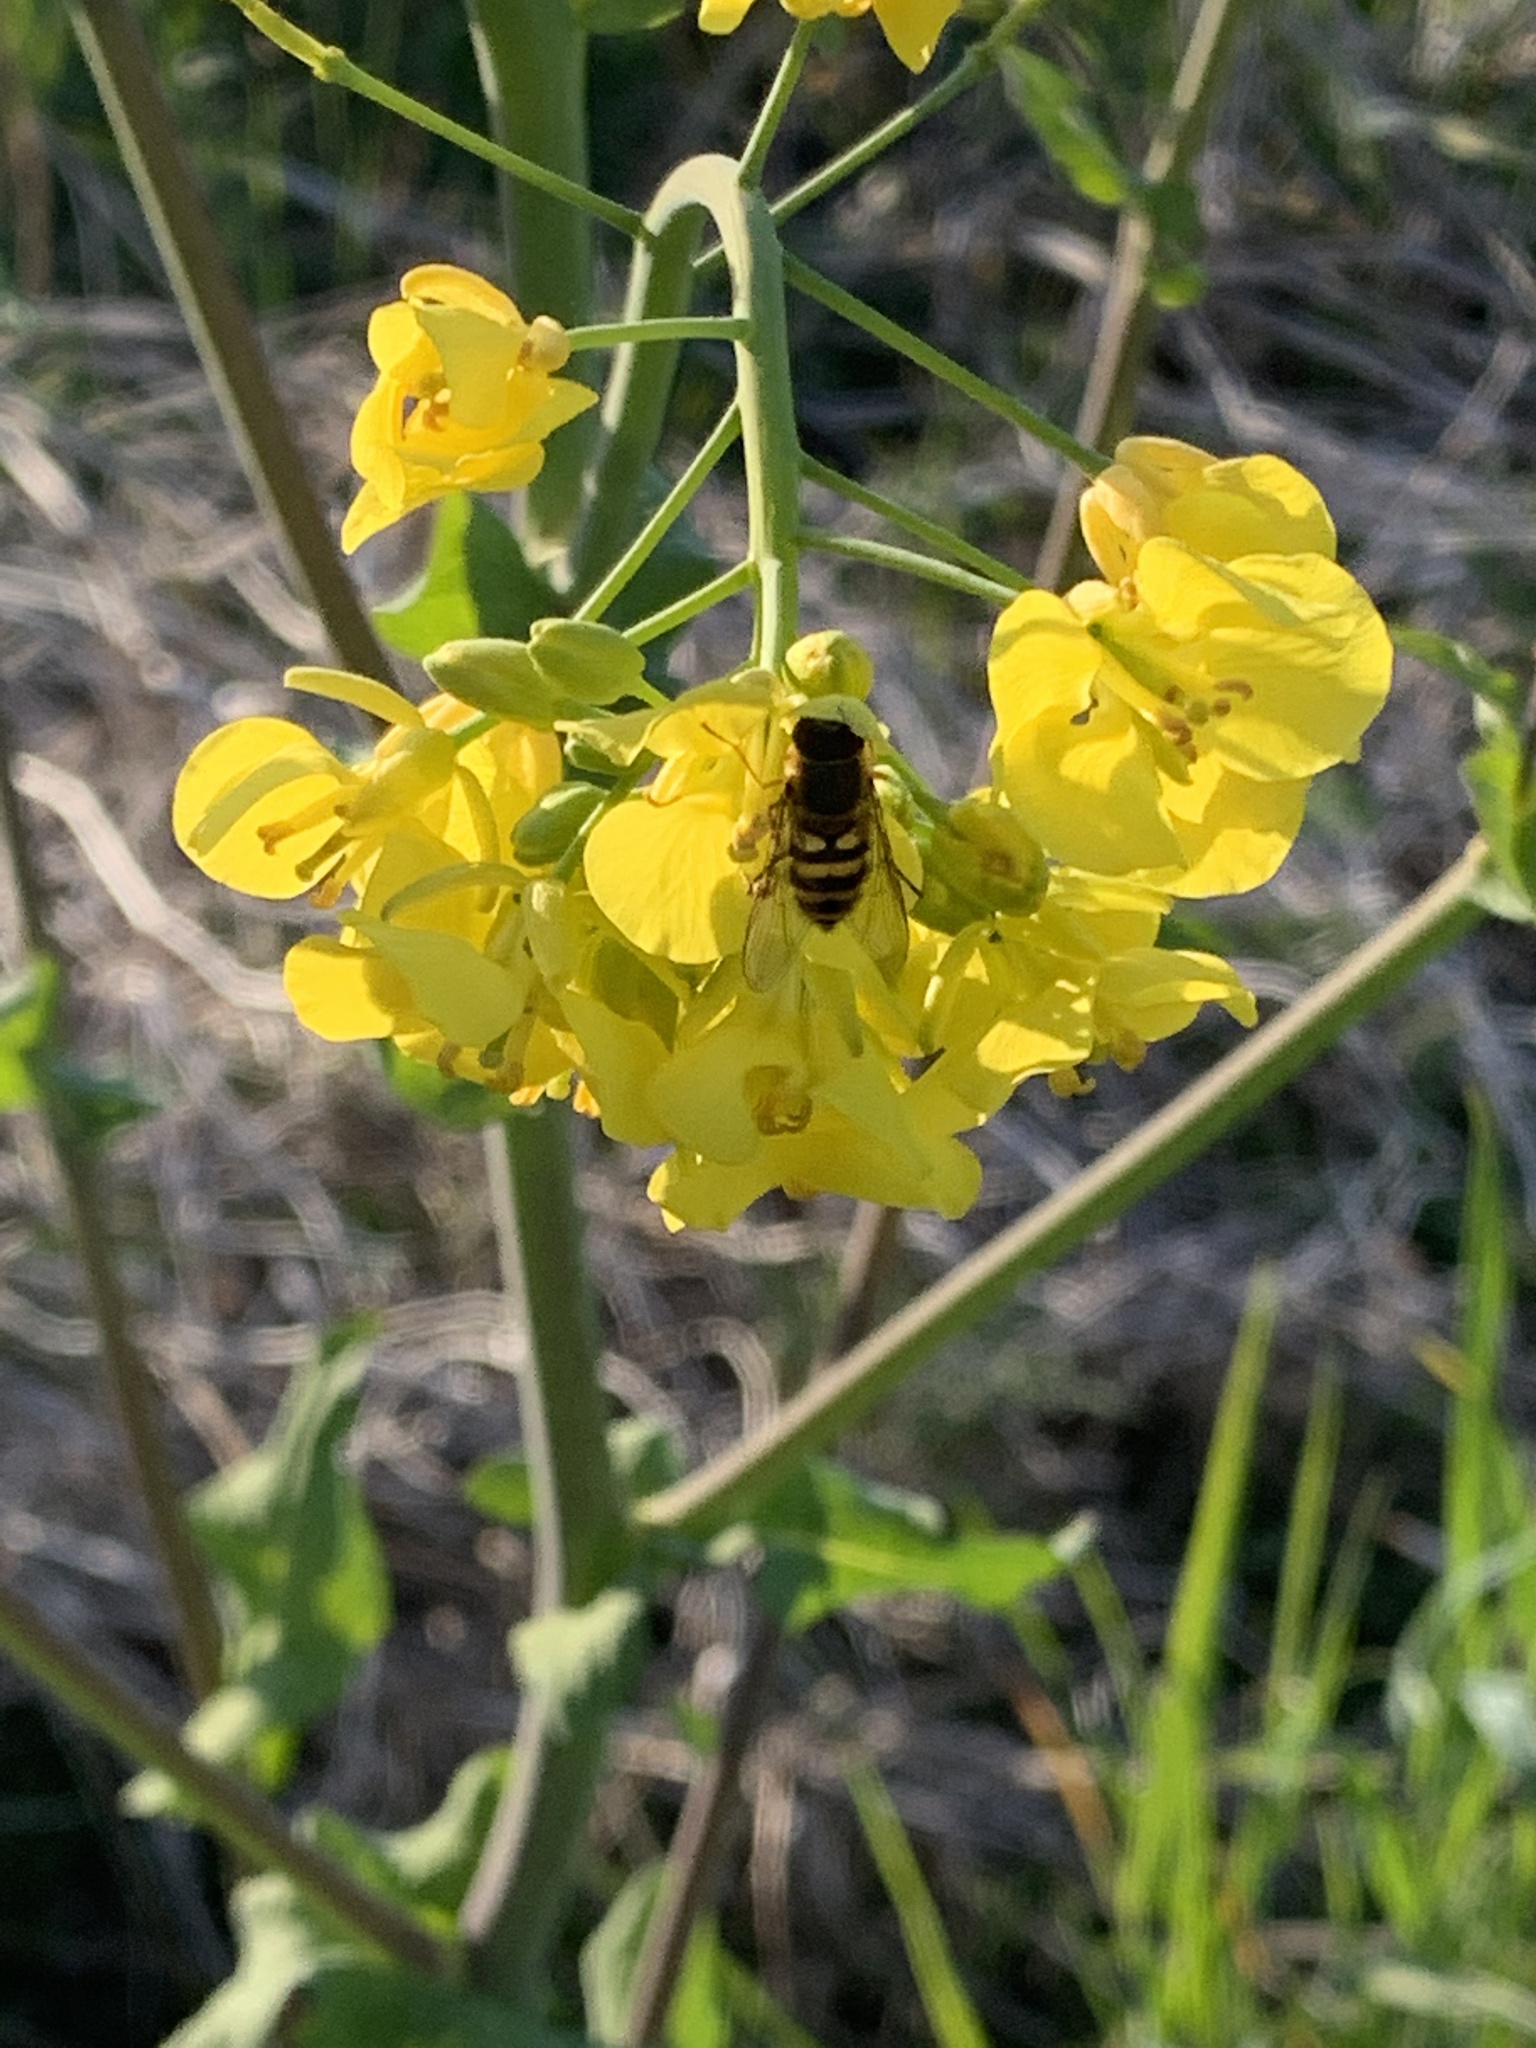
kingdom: Animalia
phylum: Arthropoda
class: Insecta
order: Diptera
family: Syrphidae
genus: Syrphus
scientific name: Syrphus
